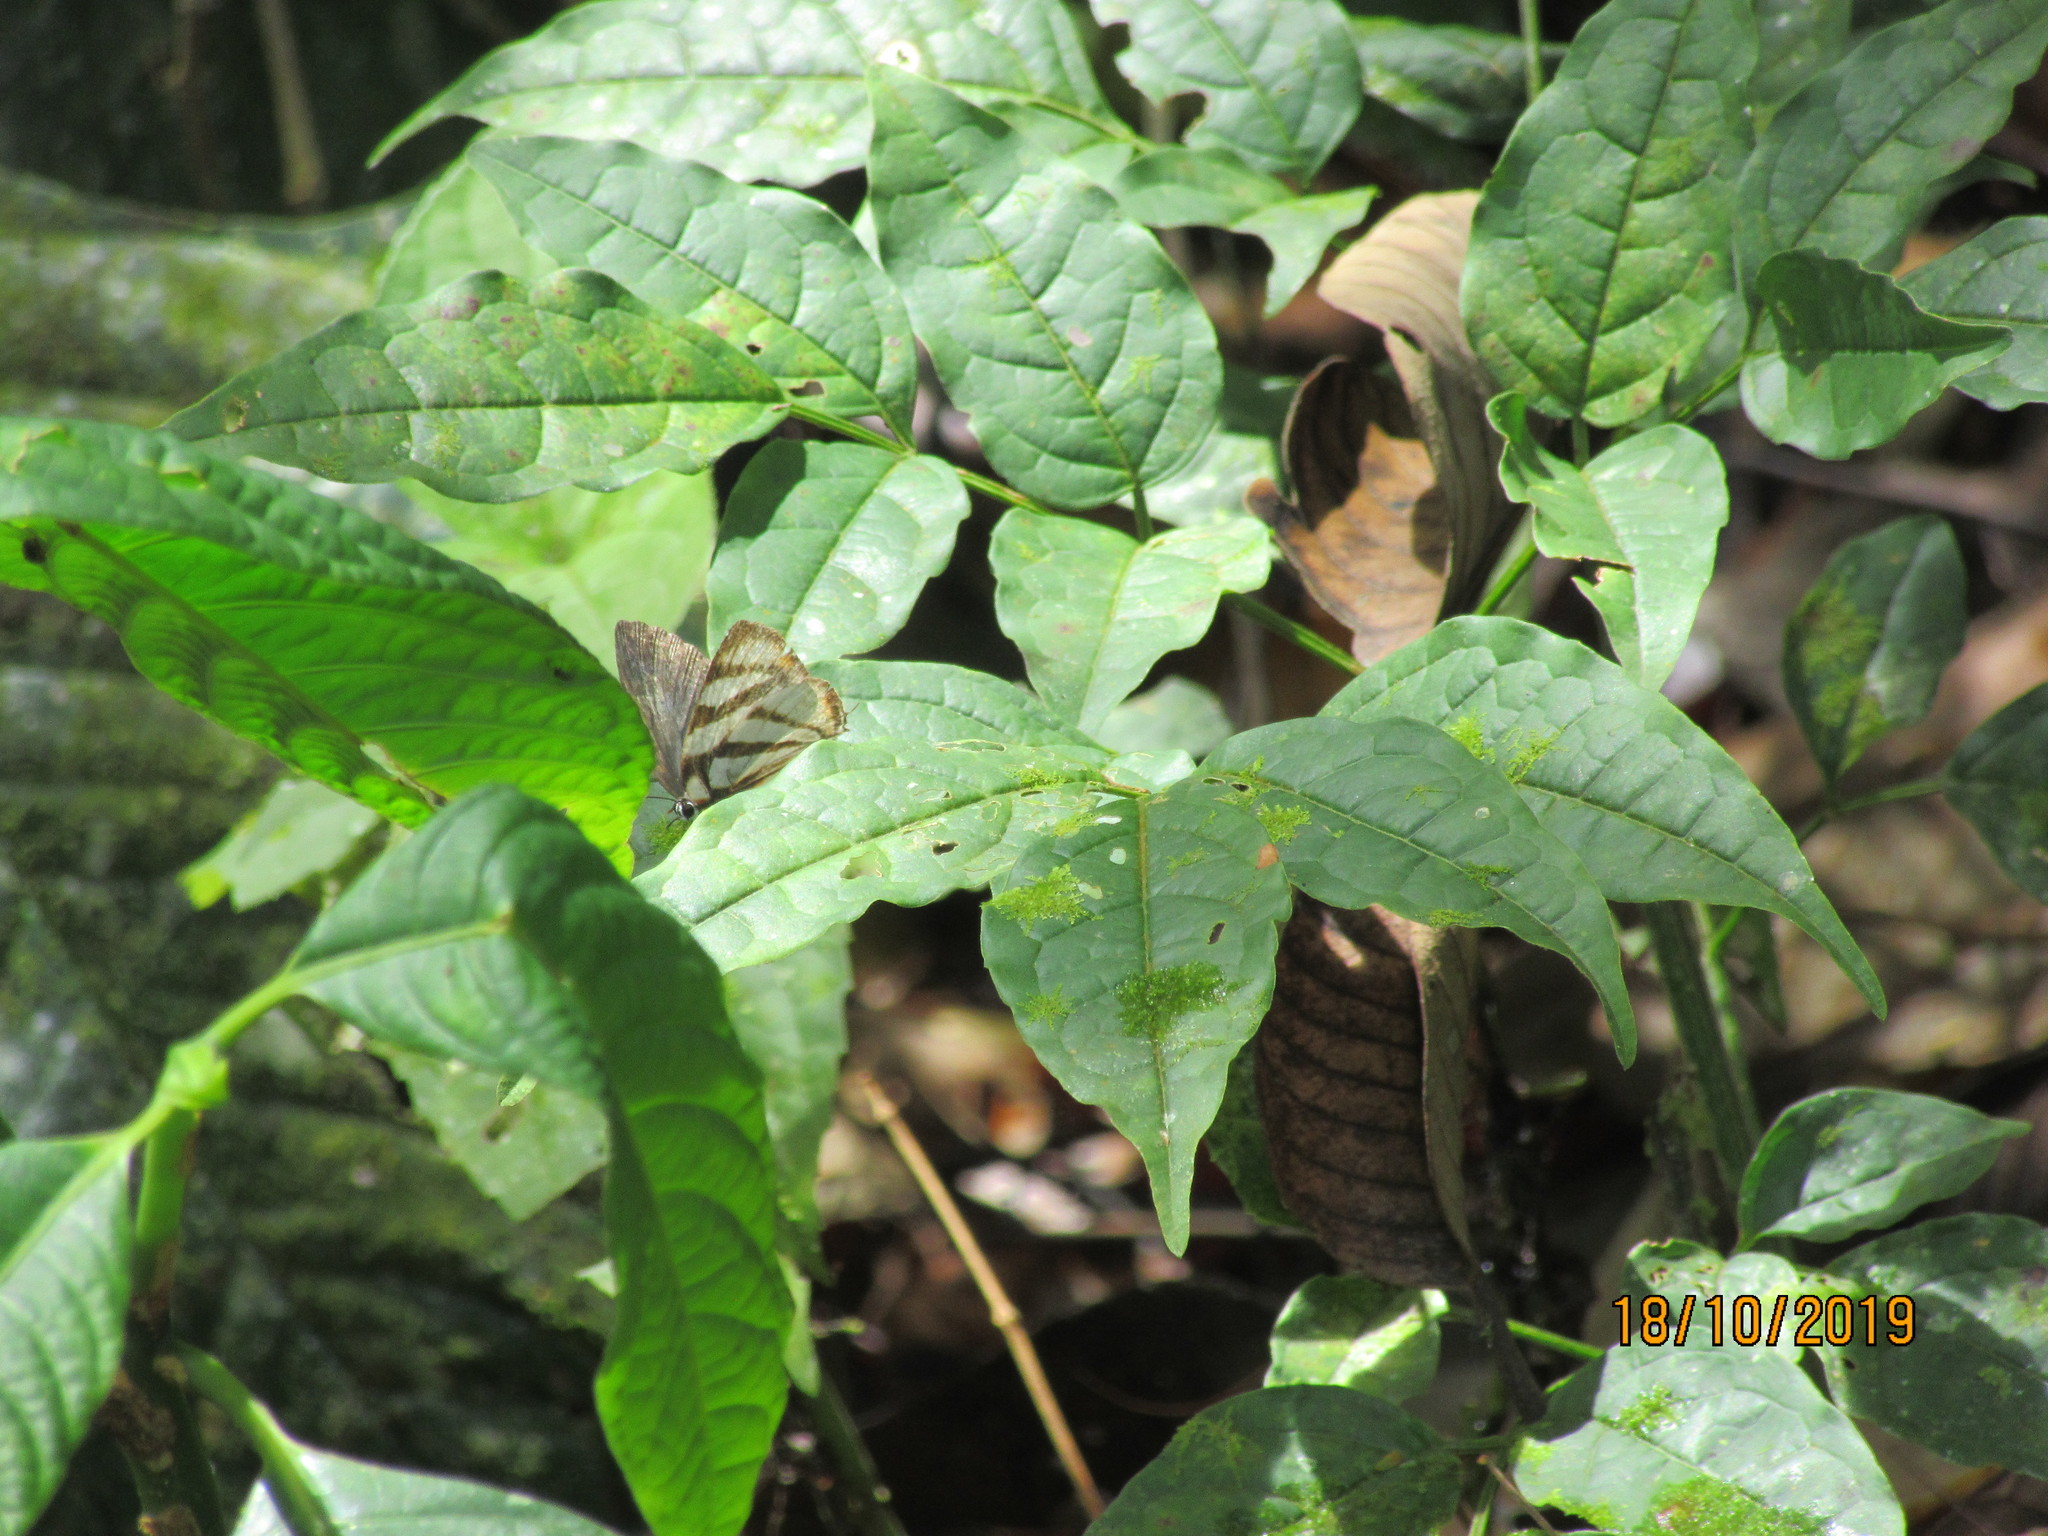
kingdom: Animalia
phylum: Arthropoda
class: Insecta
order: Lepidoptera
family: Lycaenidae
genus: Cycnus
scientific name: Cycnus phaleros
